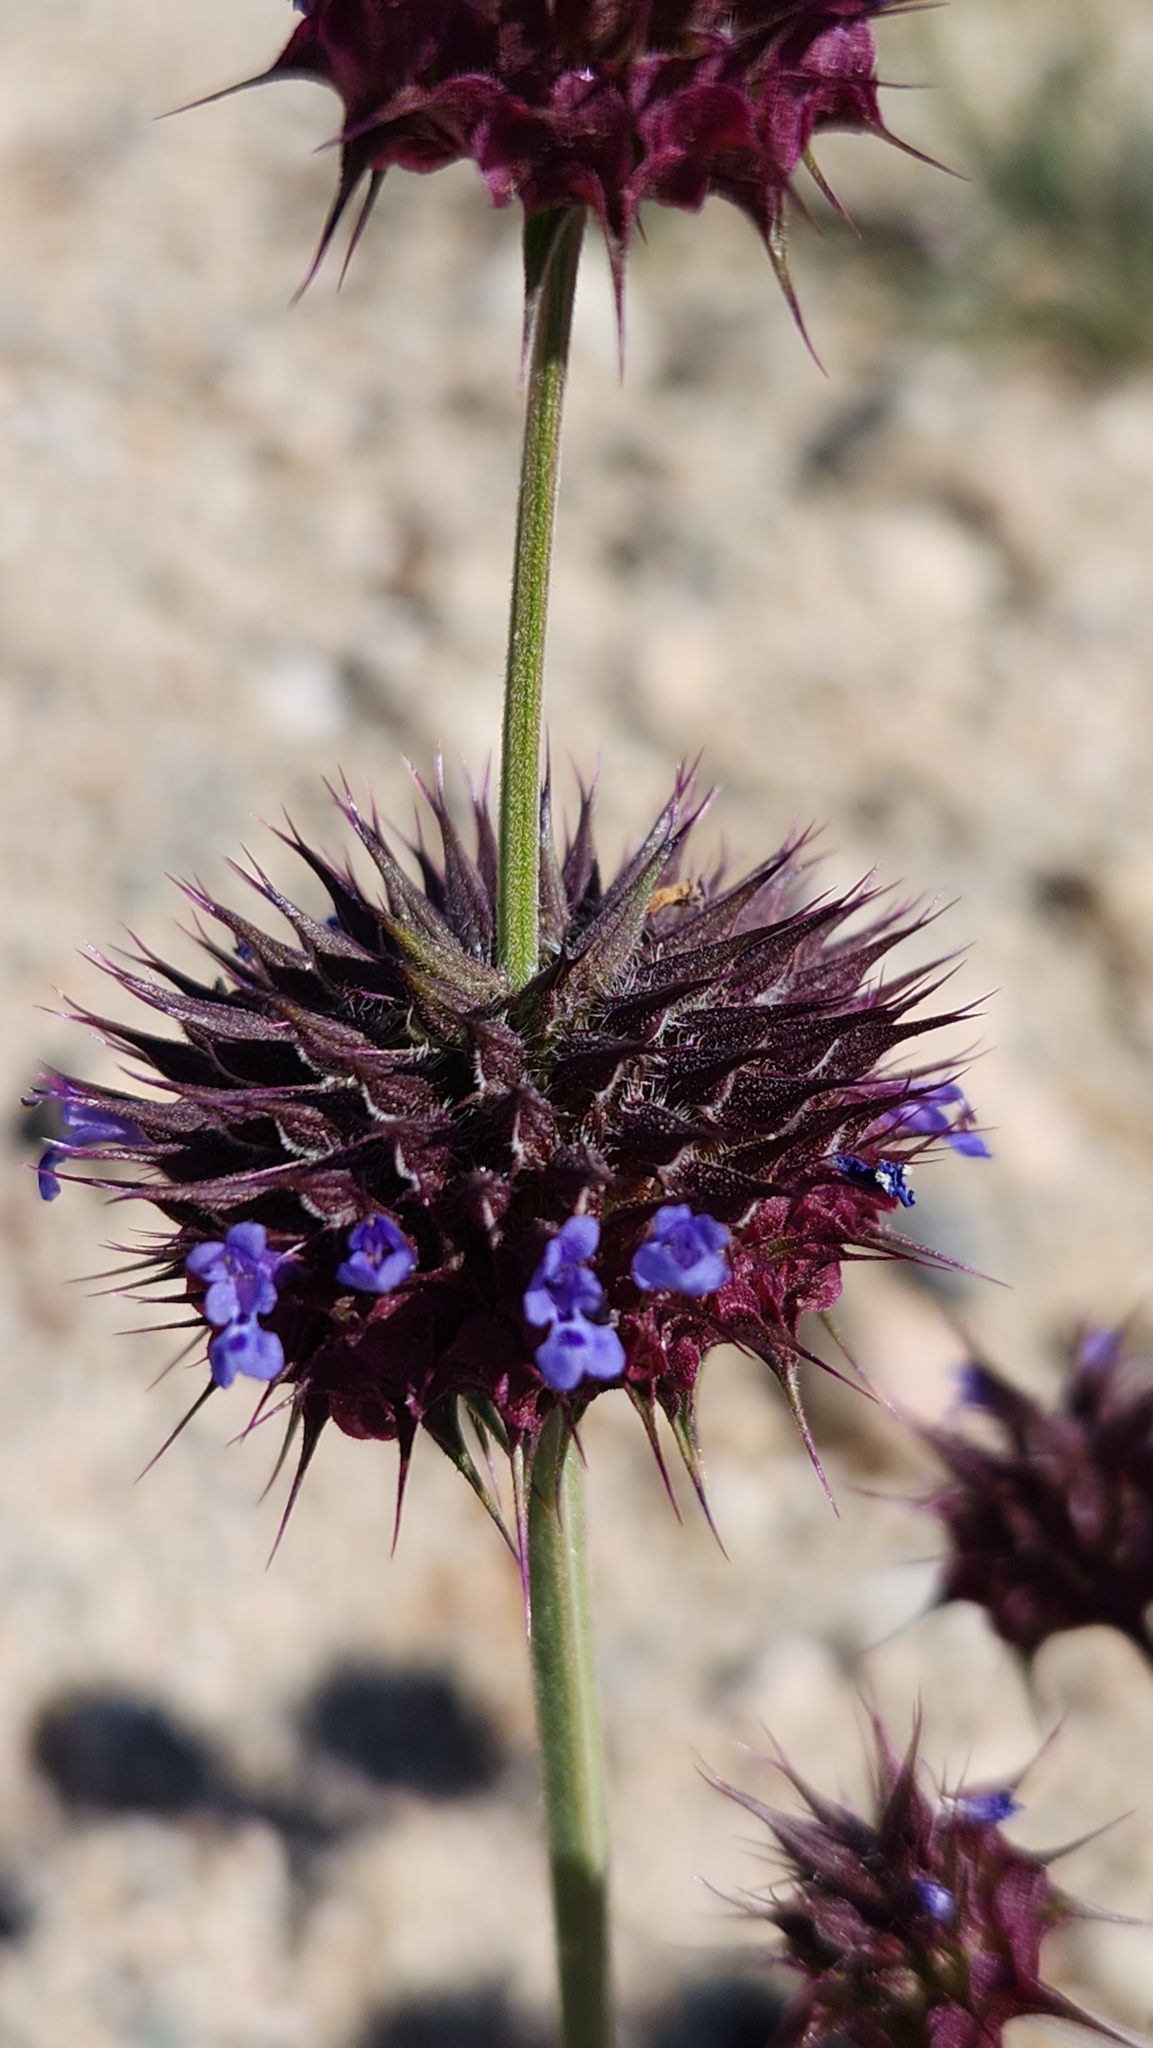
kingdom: Plantae
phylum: Tracheophyta
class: Magnoliopsida
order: Lamiales
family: Lamiaceae
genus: Salvia
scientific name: Salvia columbariae
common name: Chia
